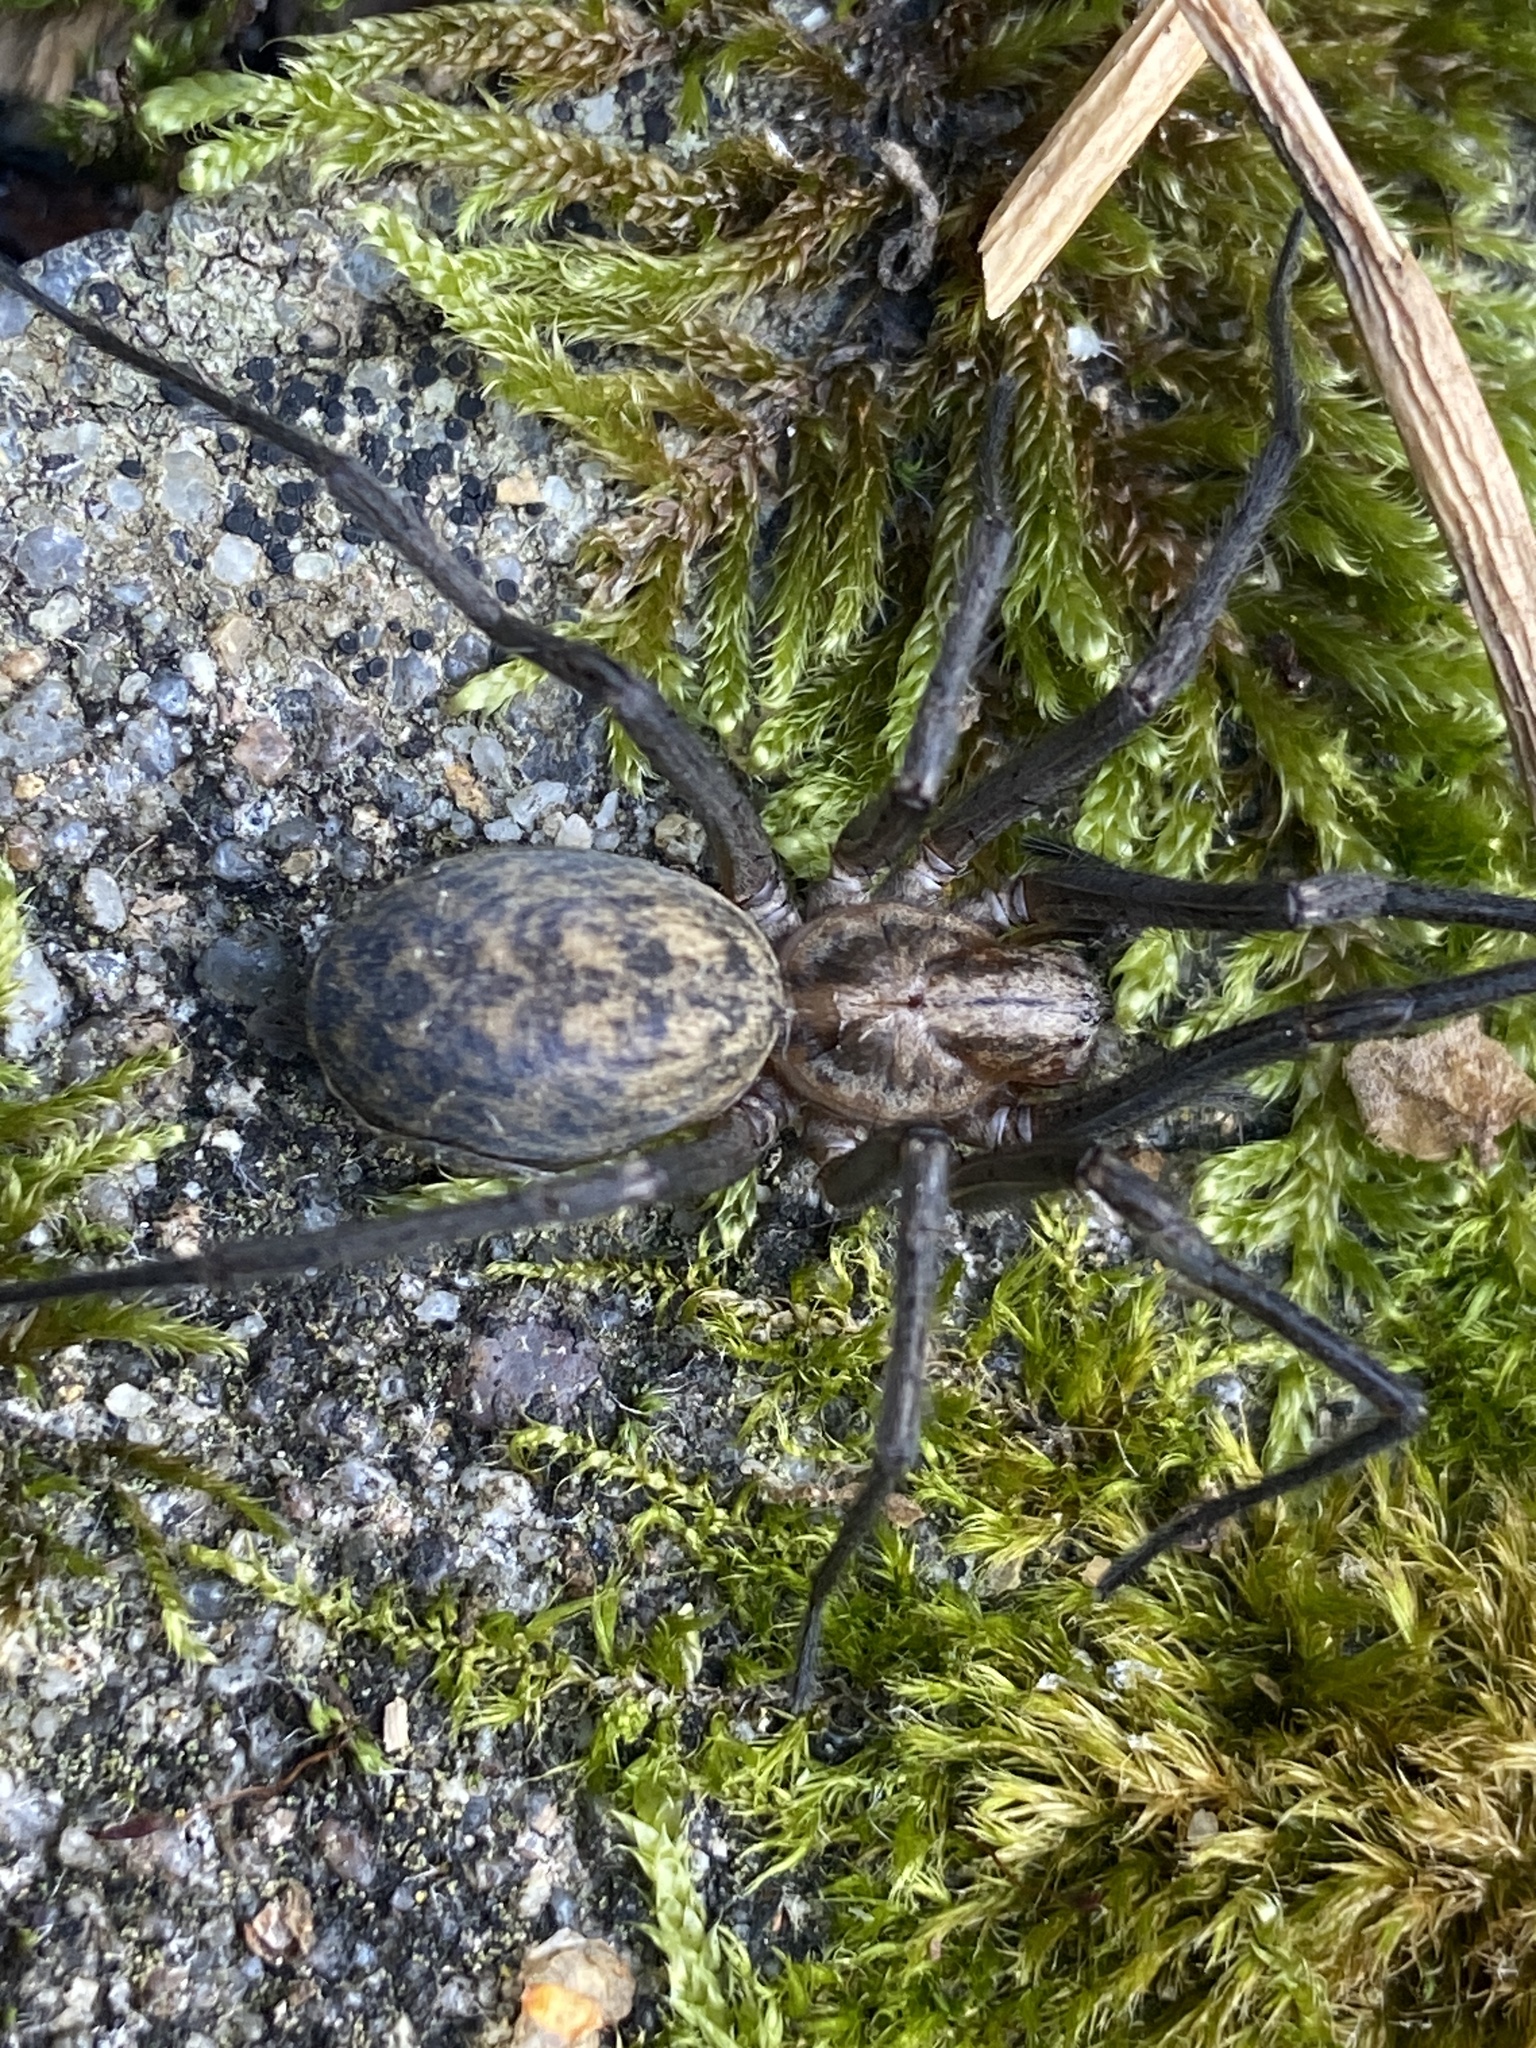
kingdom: Animalia
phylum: Arthropoda
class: Arachnida
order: Araneae
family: Agelenidae
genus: Eratigena
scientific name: Eratigena atrica
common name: Giant house spider
